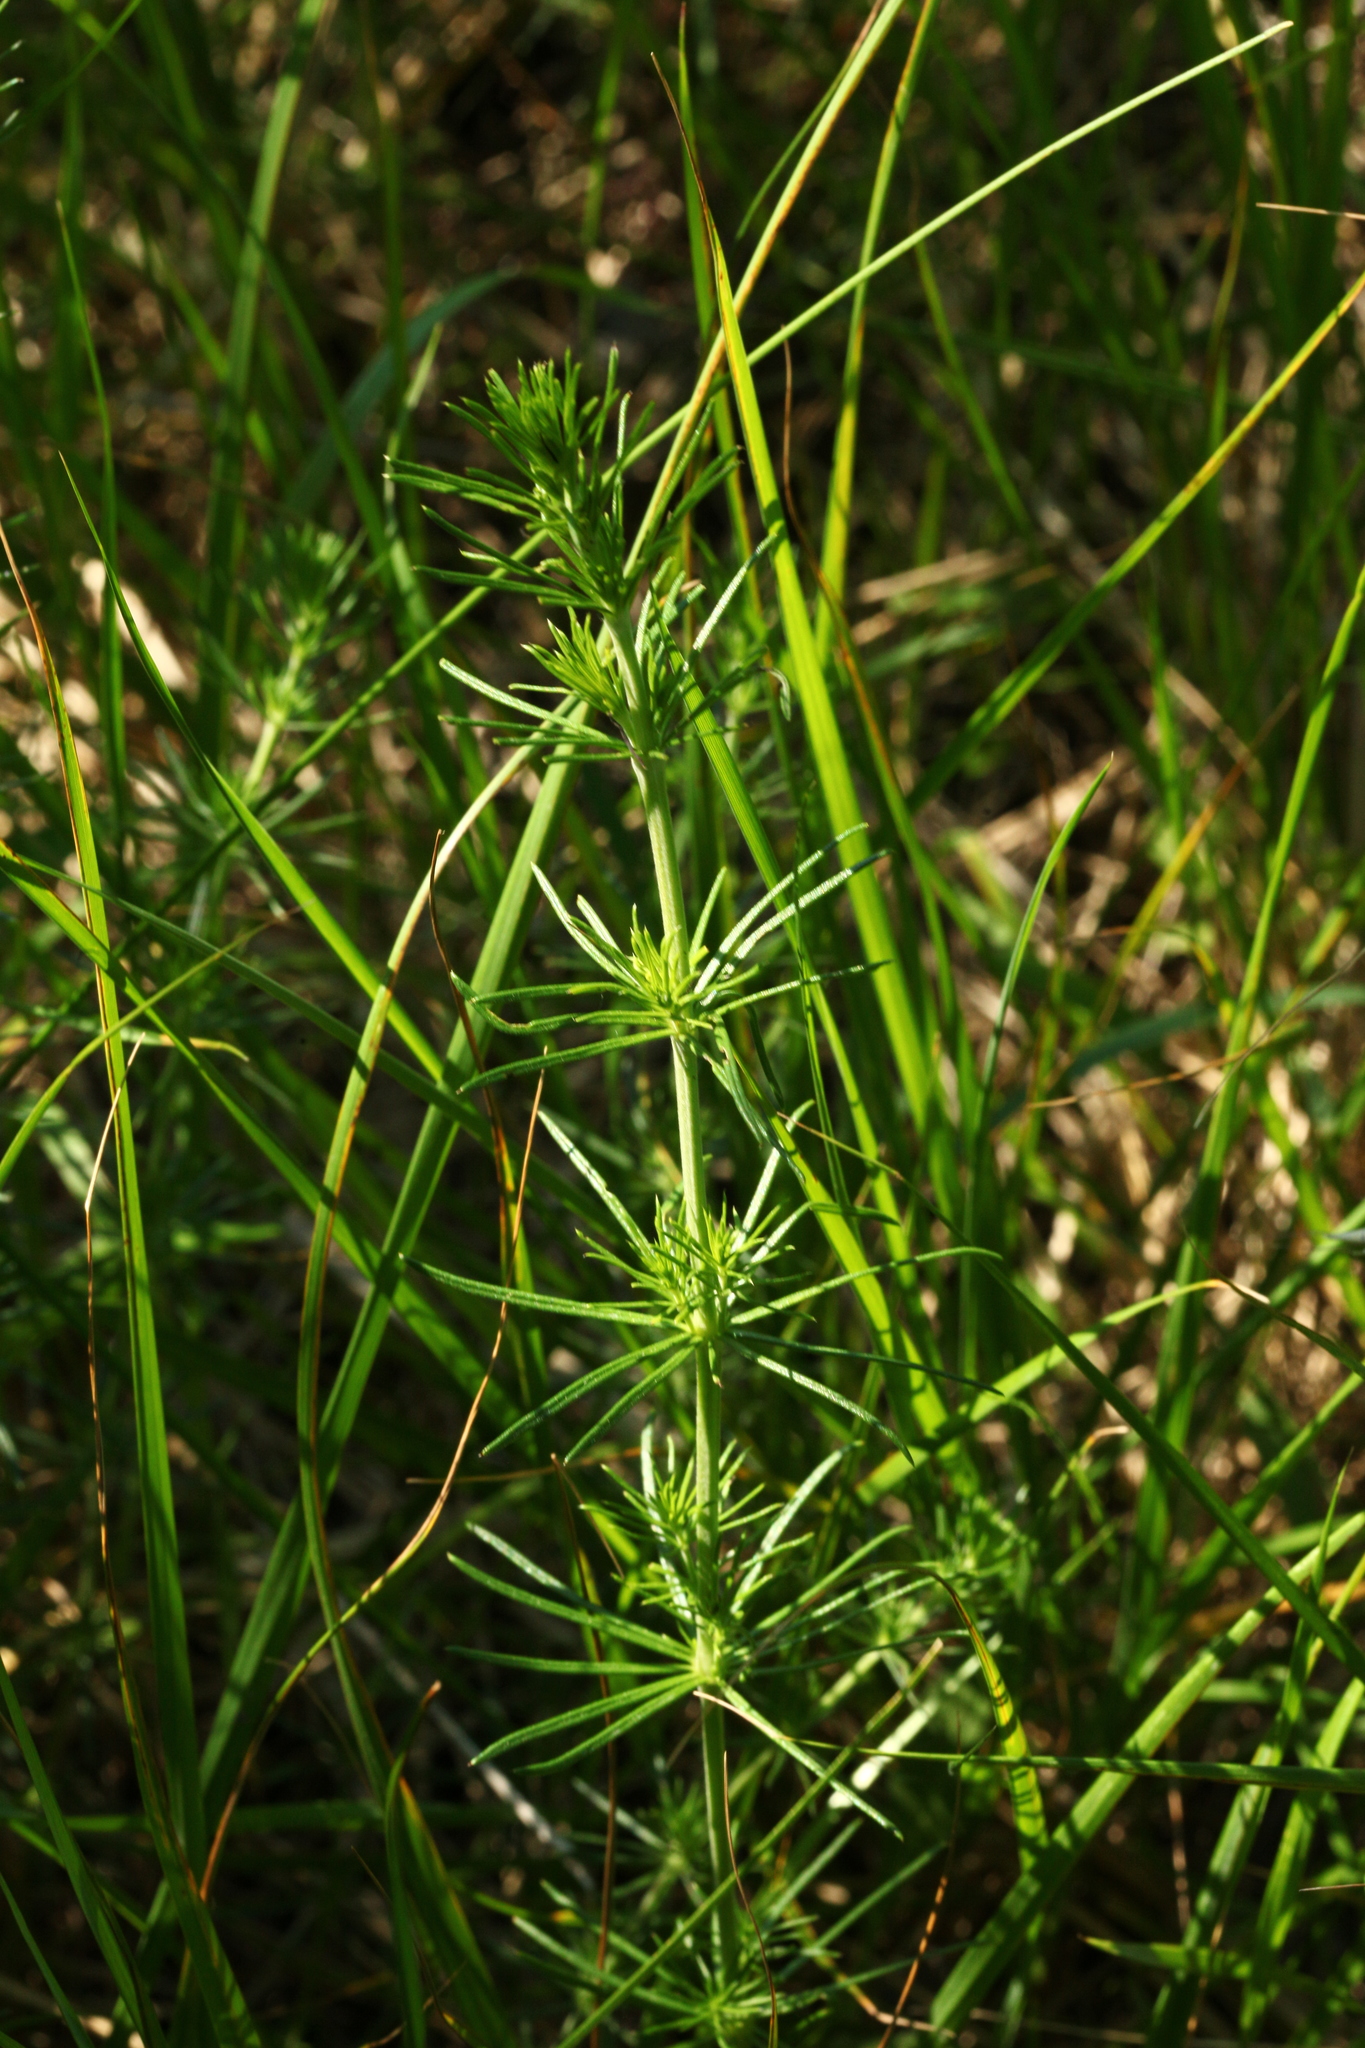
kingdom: Plantae
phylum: Tracheophyta
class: Magnoliopsida
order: Gentianales
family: Rubiaceae
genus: Galium
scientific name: Galium verum
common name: Lady's bedstraw
